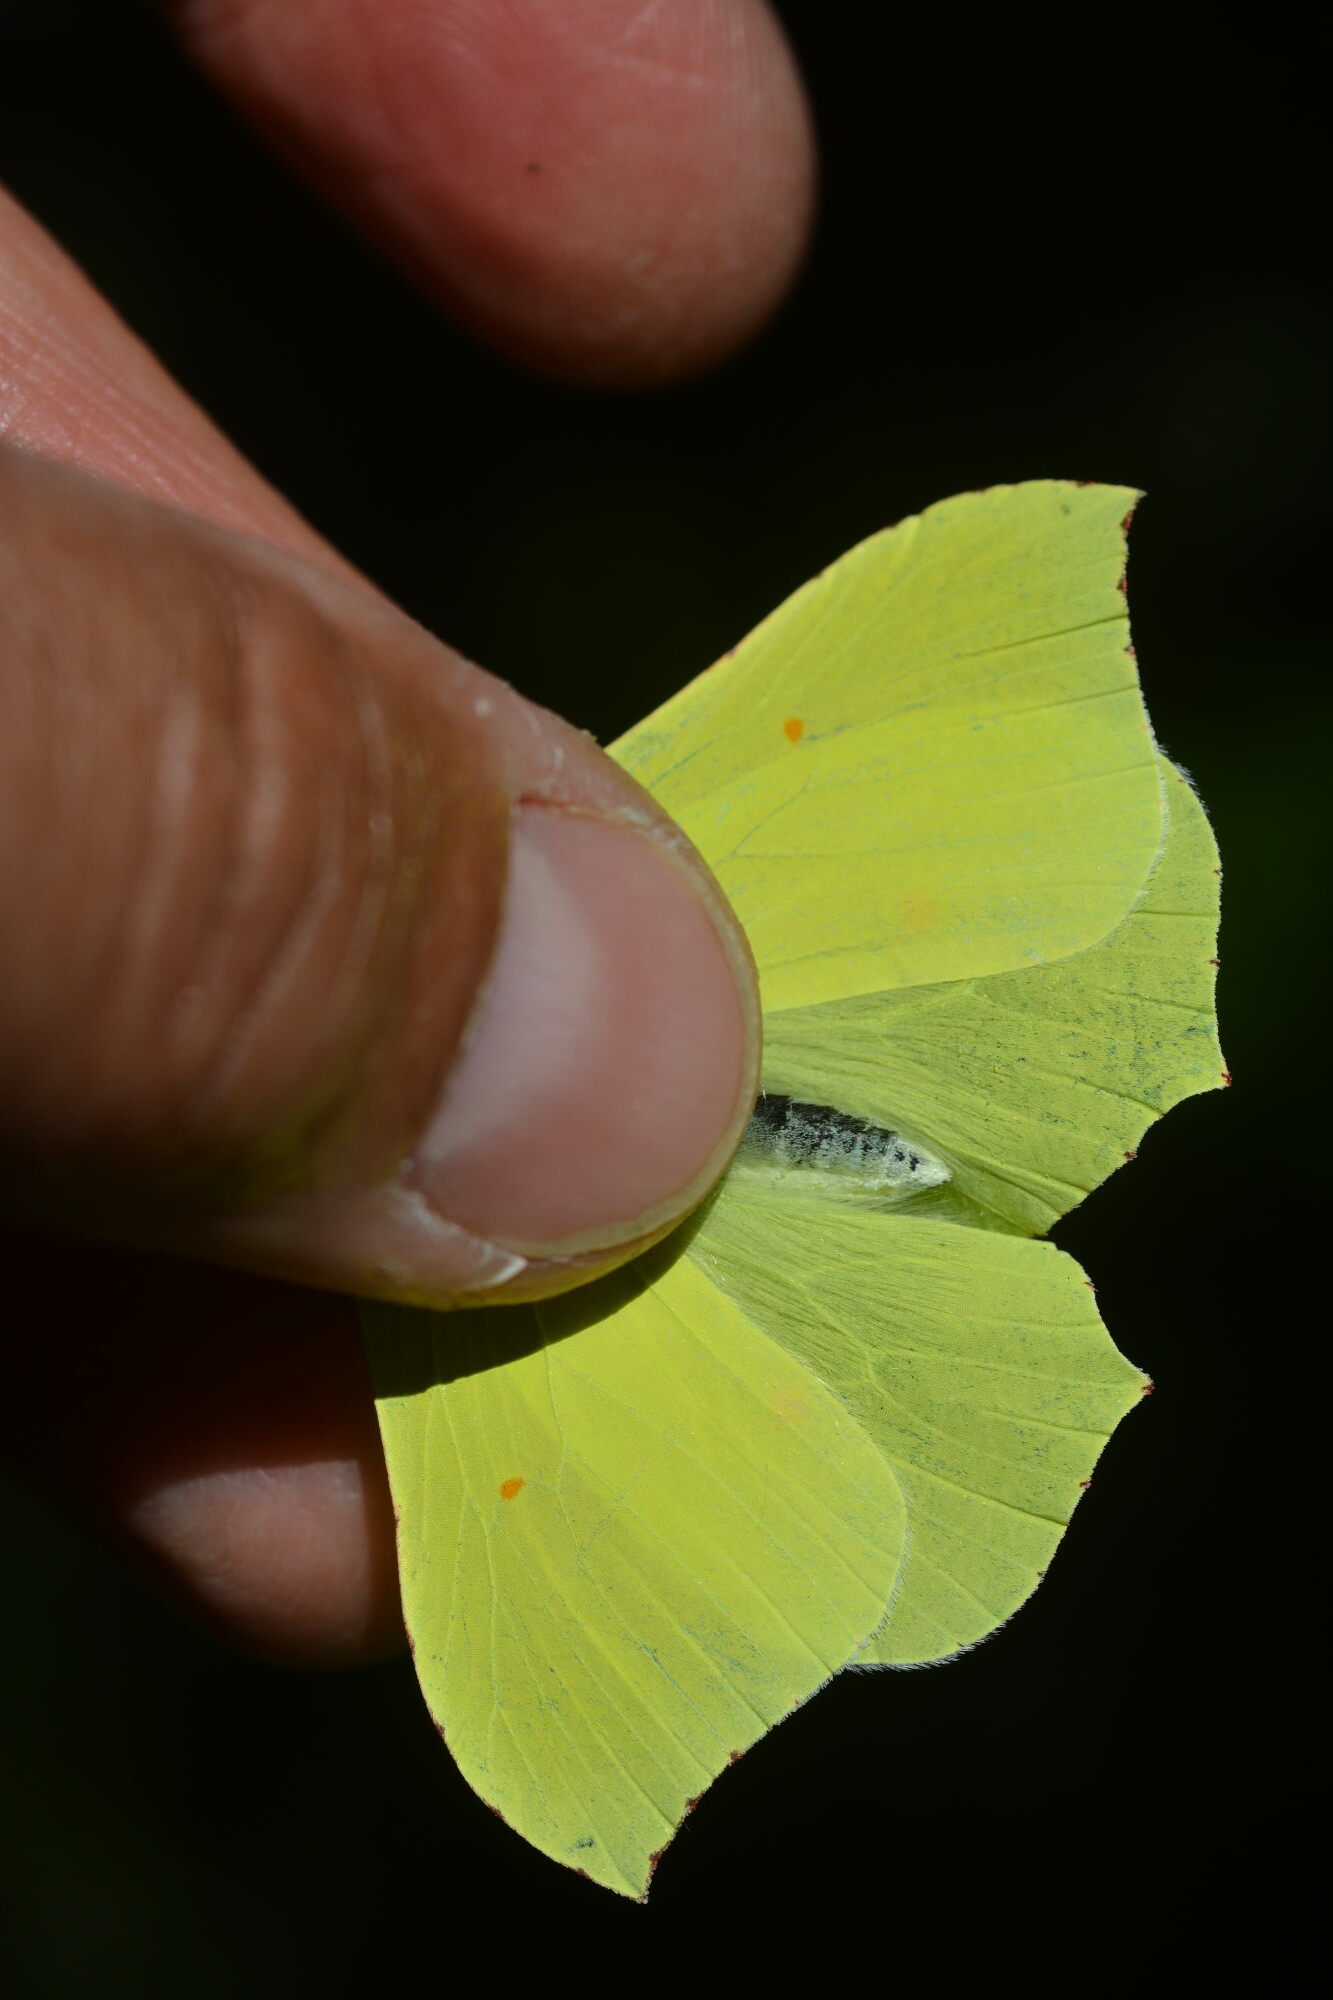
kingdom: Animalia
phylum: Arthropoda
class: Insecta
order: Lepidoptera
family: Pieridae
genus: Gonepteryx
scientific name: Gonepteryx rhamni
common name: Brimstone
